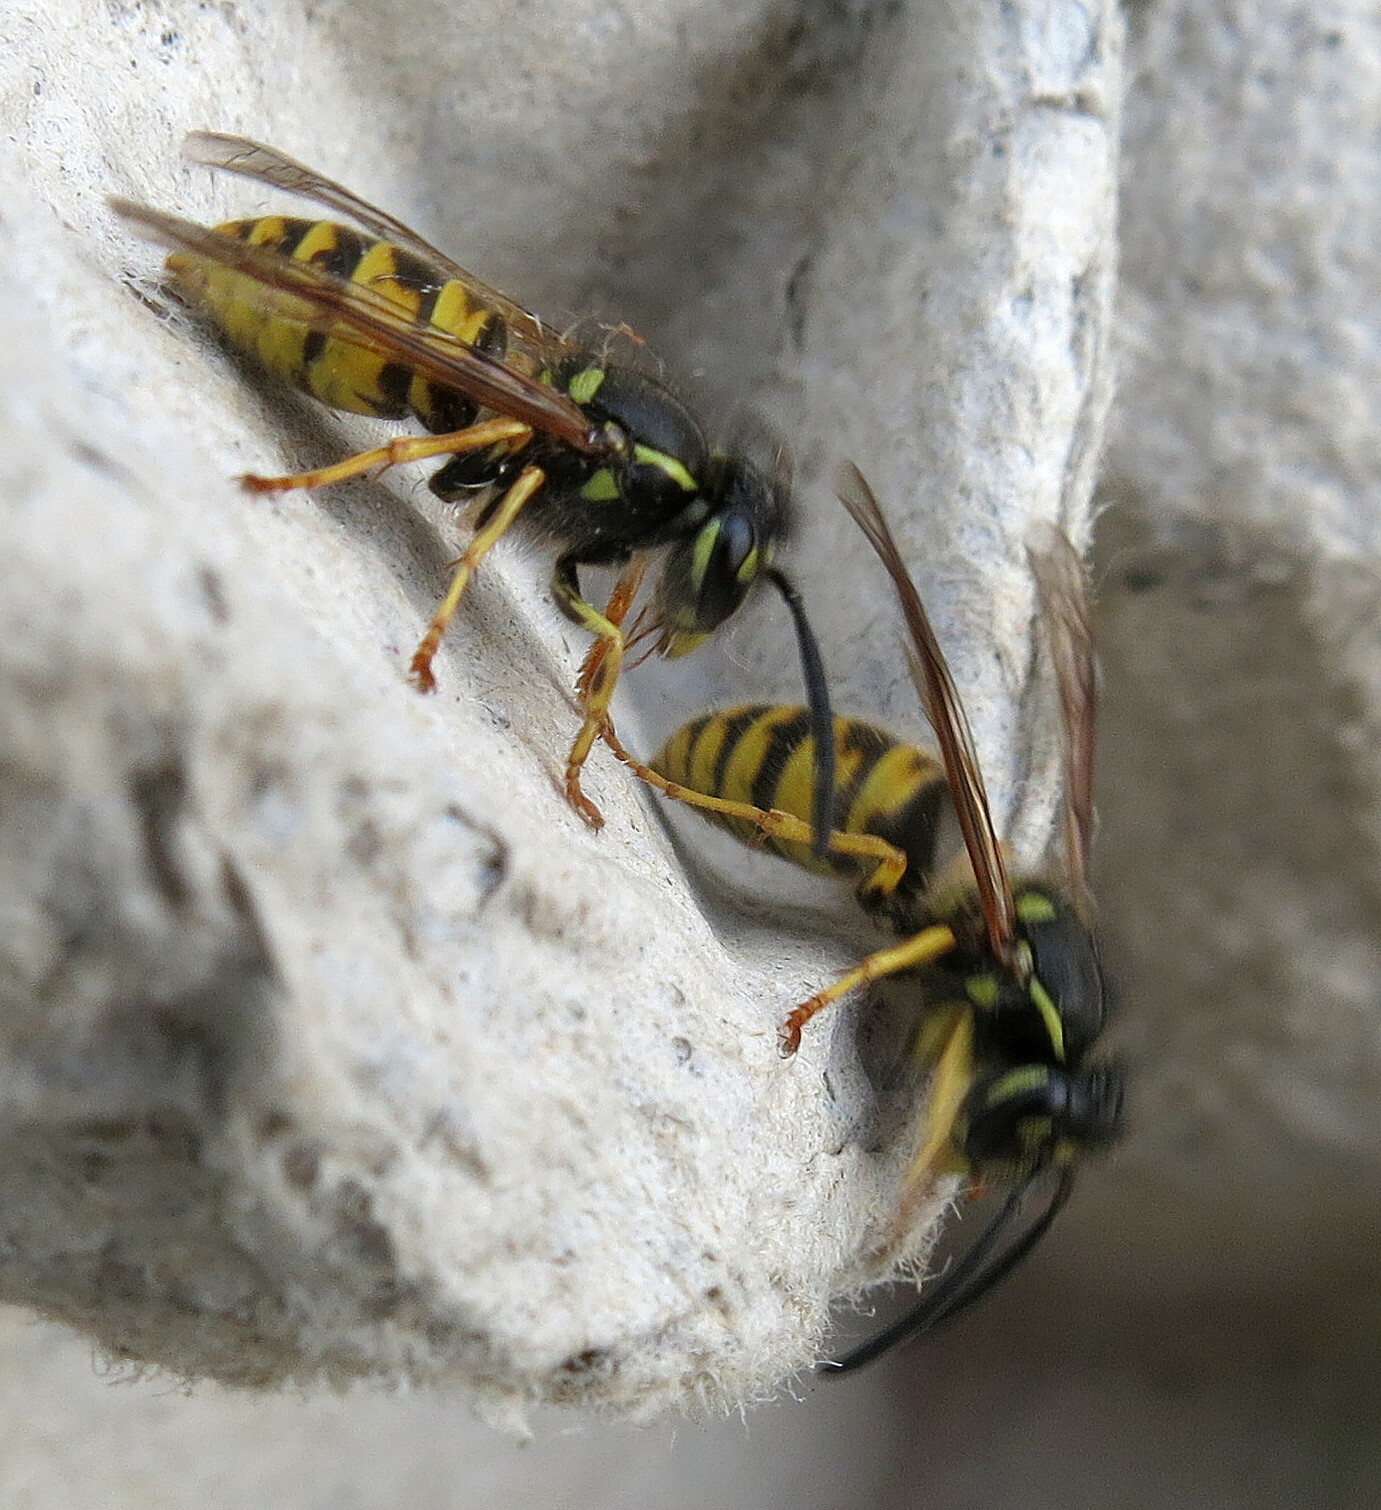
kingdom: Animalia
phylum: Arthropoda
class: Insecta
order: Hymenoptera
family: Vespidae
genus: Vespula
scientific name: Vespula vulgaris
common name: Common wasp
